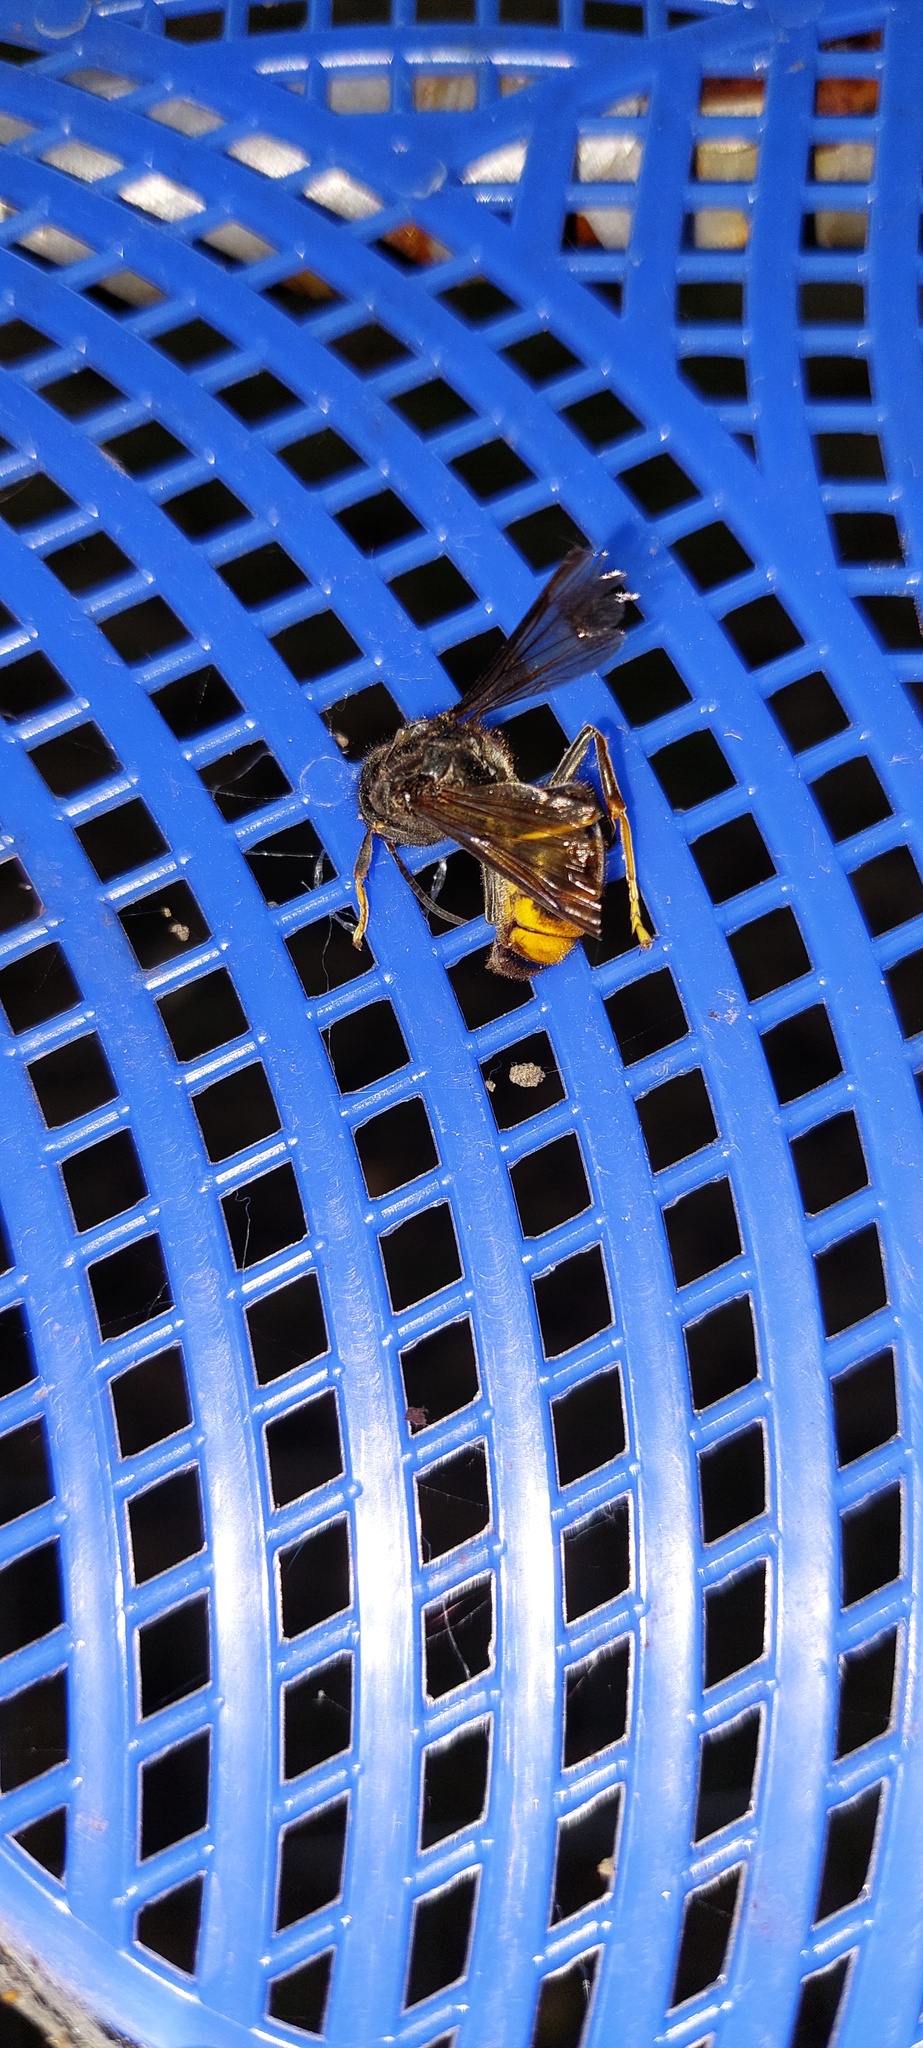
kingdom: Animalia
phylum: Arthropoda
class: Insecta
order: Hymenoptera
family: Vespidae
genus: Vespa
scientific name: Vespa velutina
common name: Asian hornet
